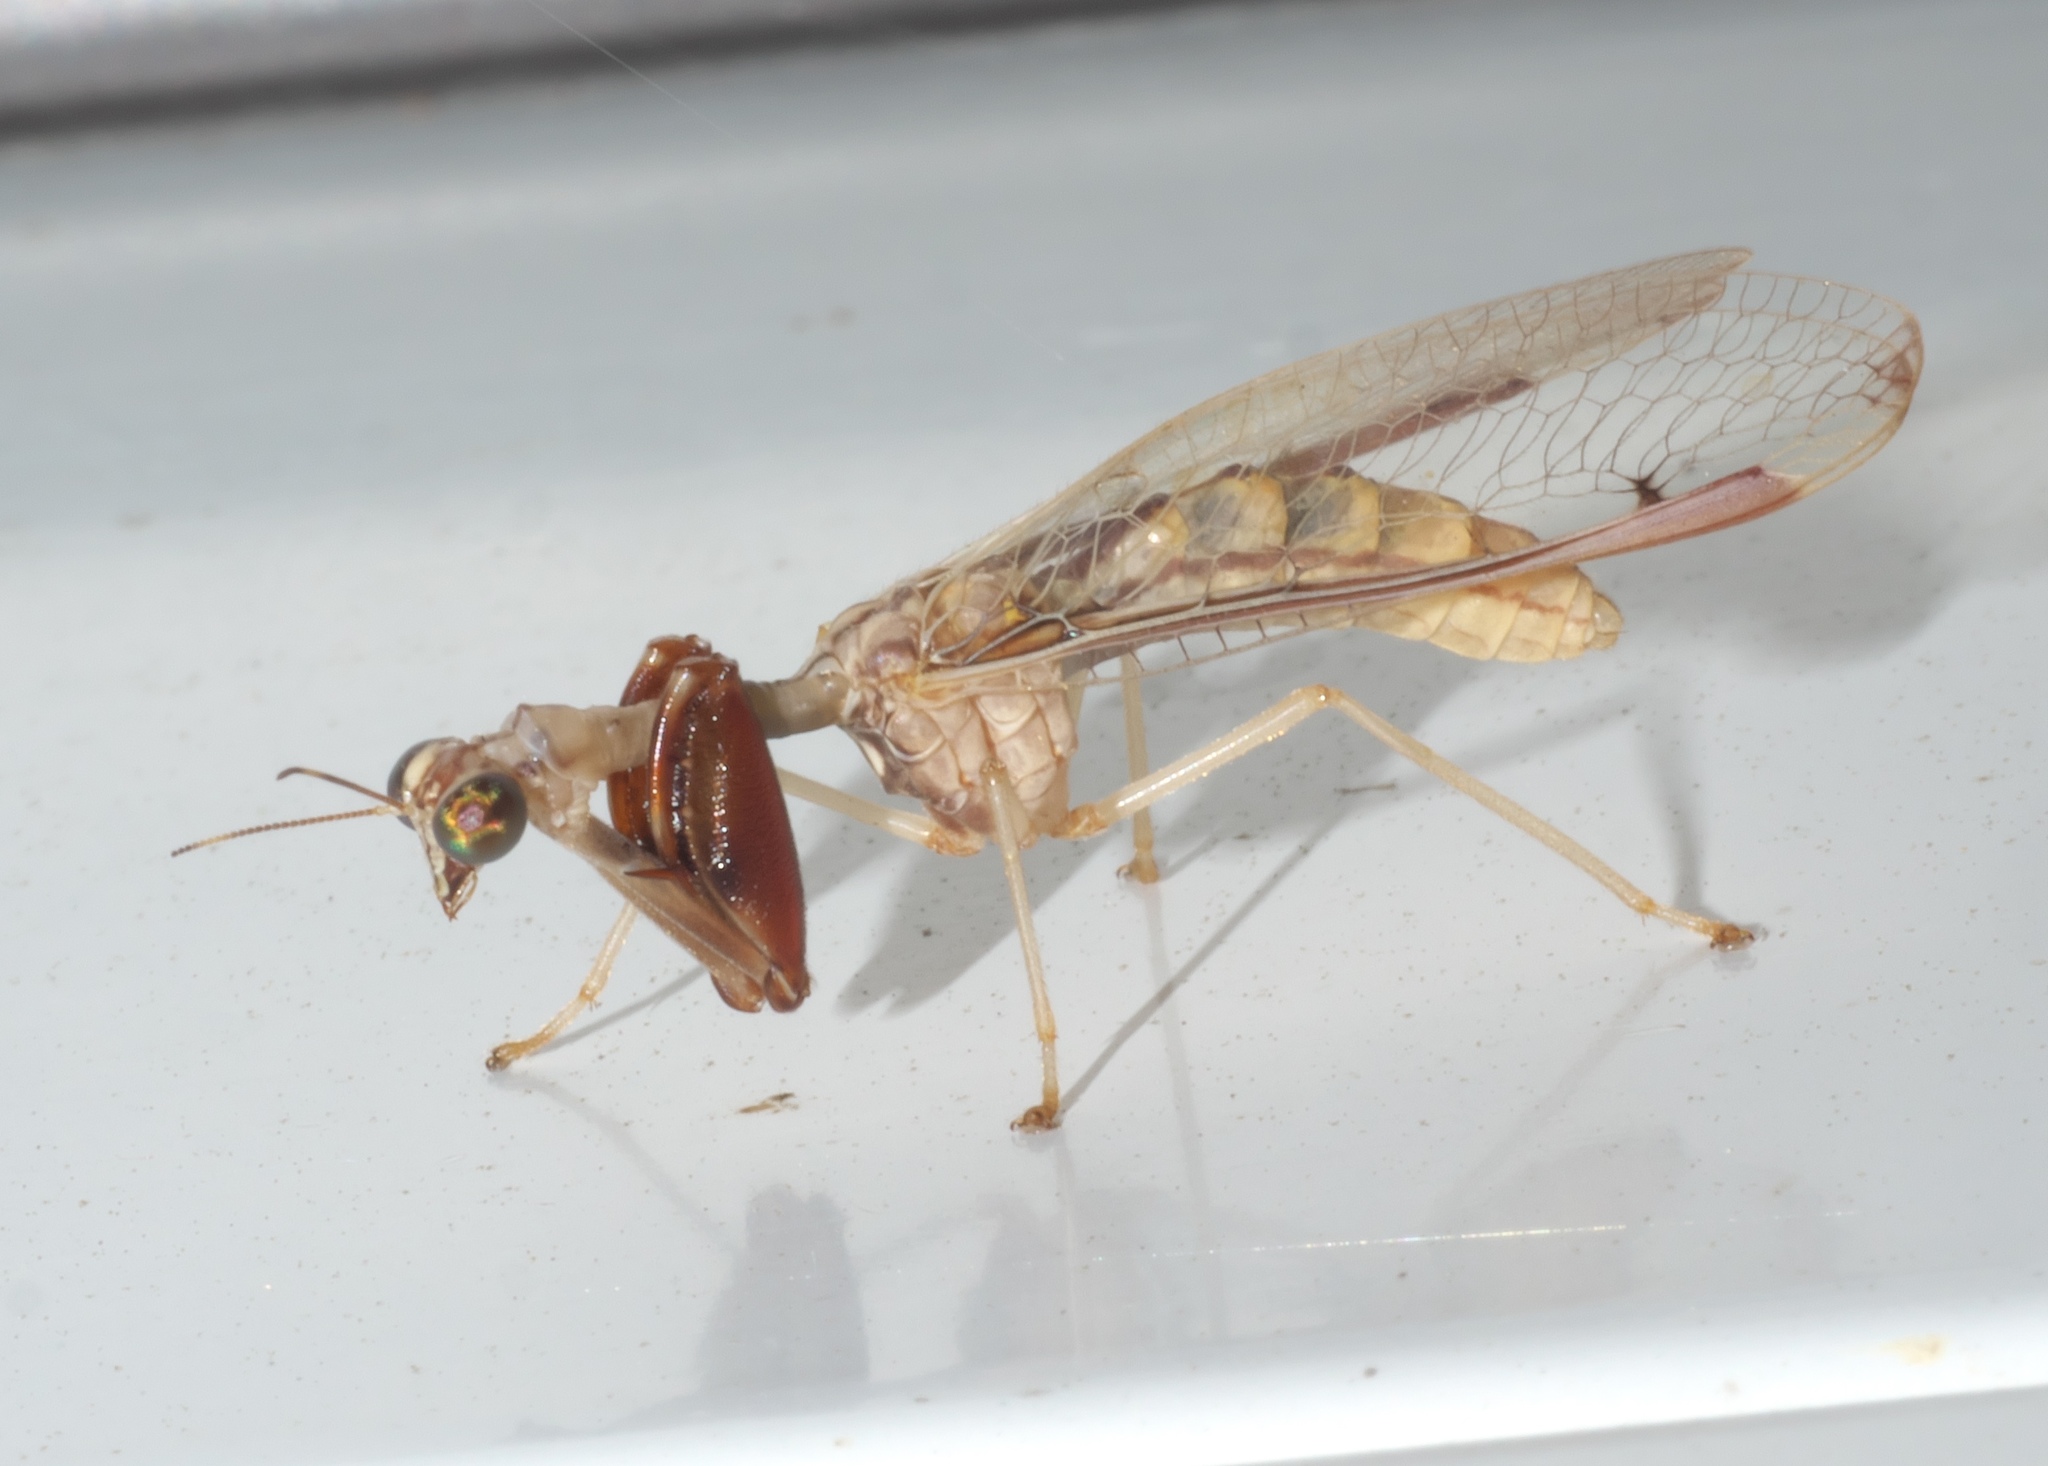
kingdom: Animalia
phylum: Arthropoda
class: Insecta
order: Neuroptera
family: Mantispidae
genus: Dicromantispa
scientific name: Dicromantispa interrupta
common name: Four-spotted mantidfly
